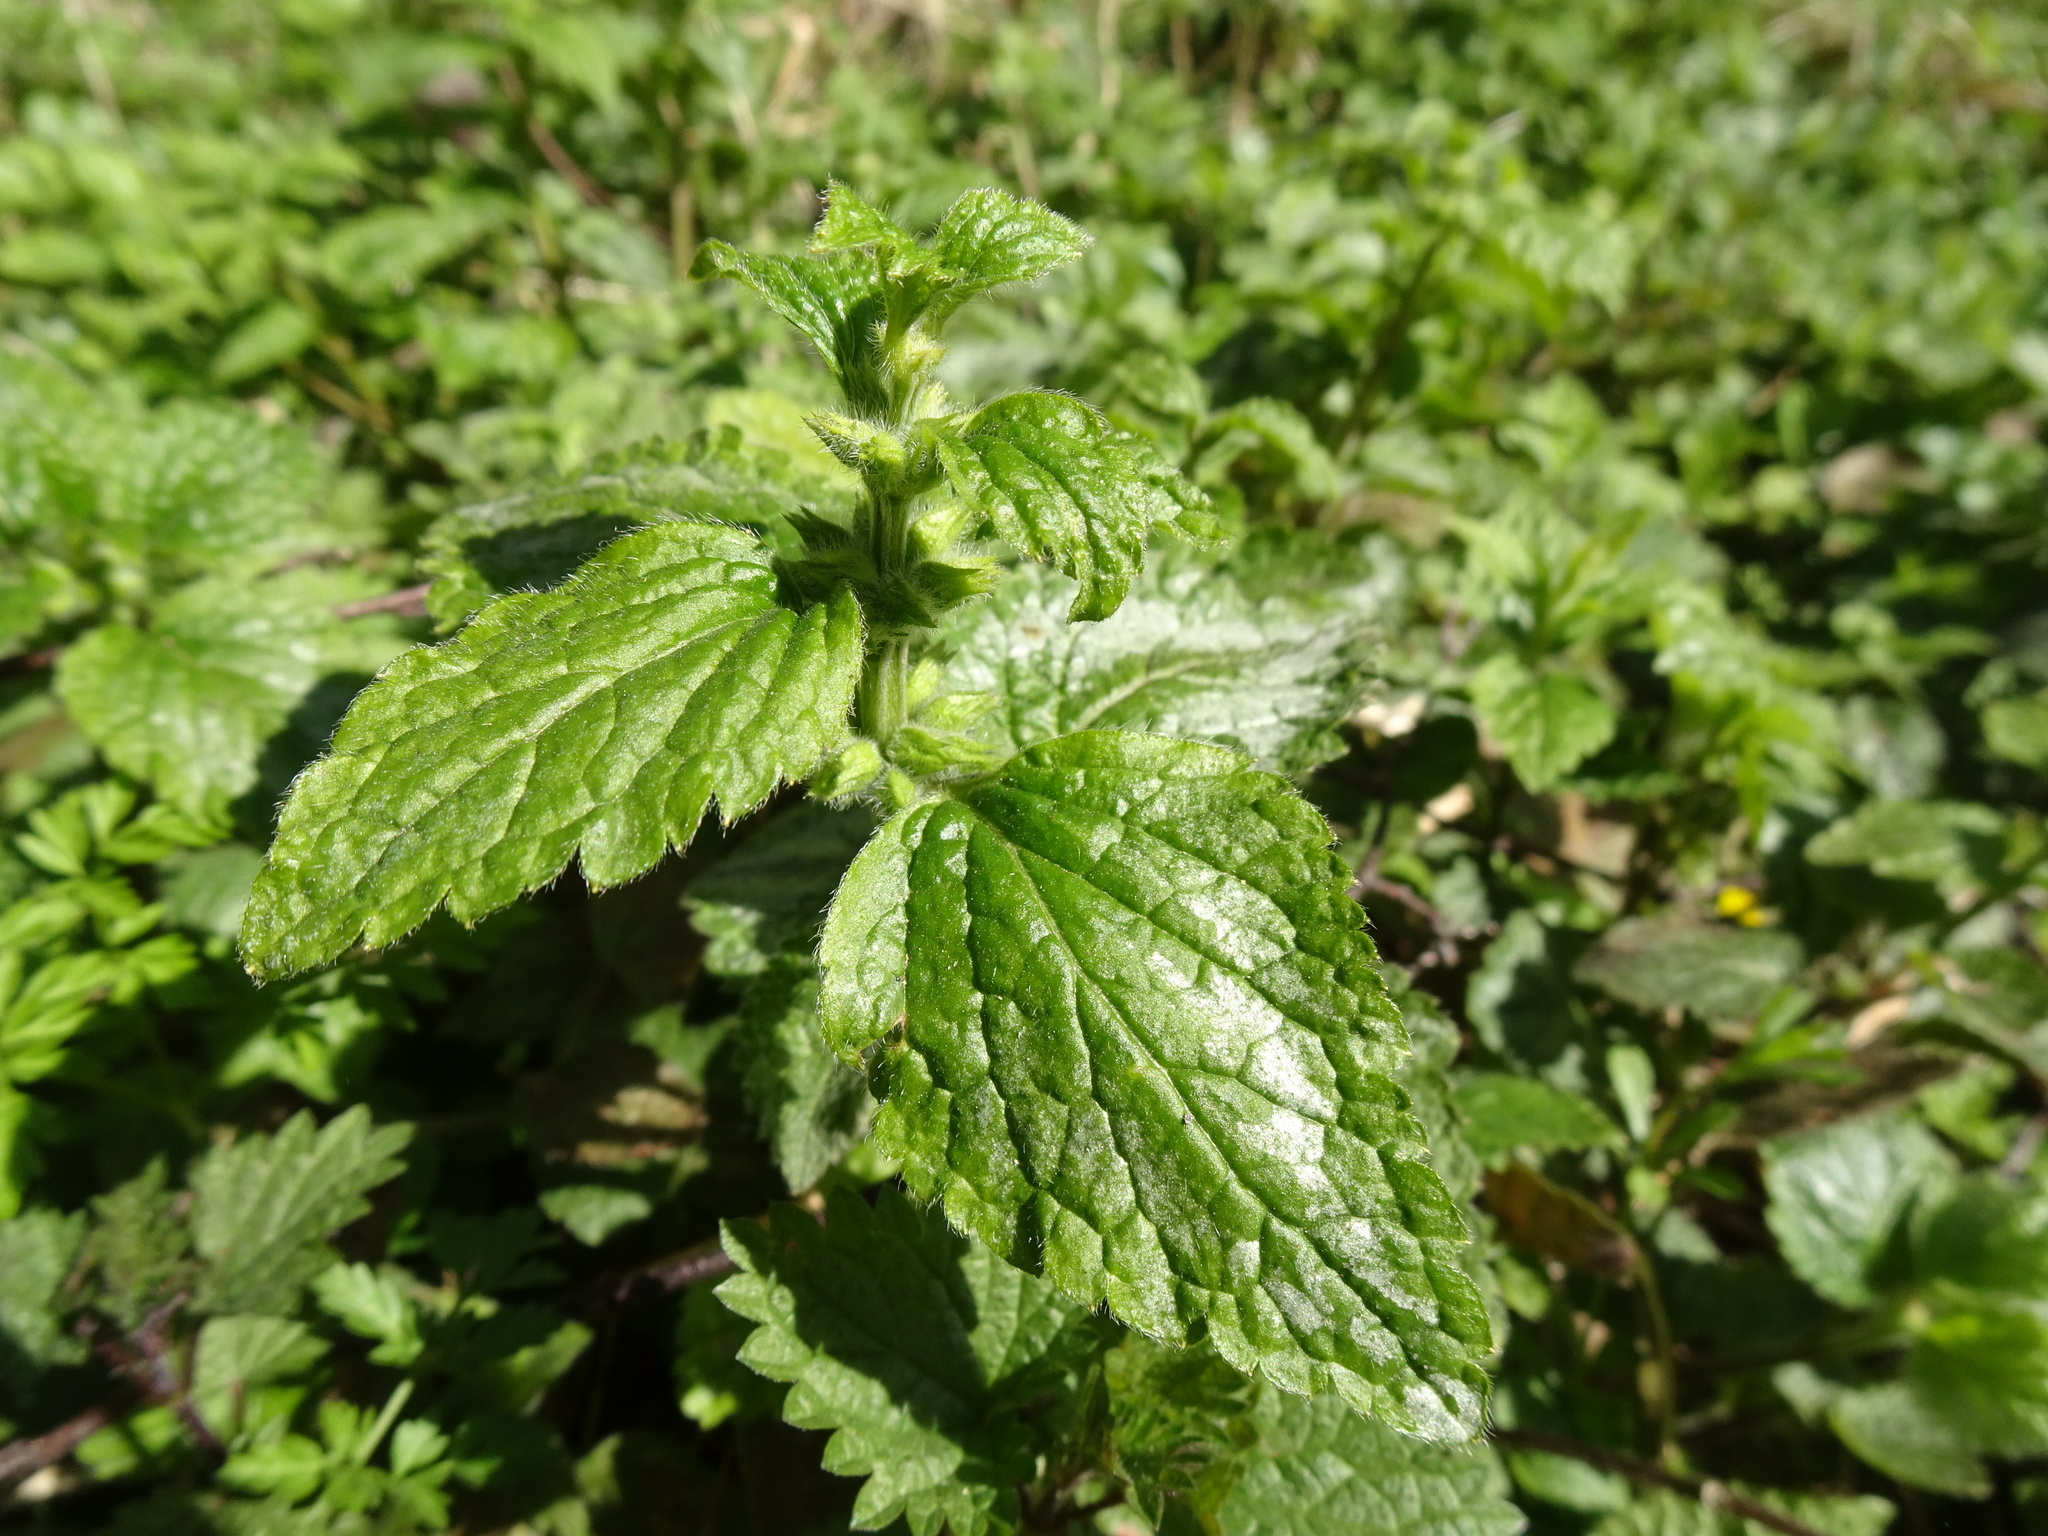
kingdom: Plantae
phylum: Tracheophyta
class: Magnoliopsida
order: Lamiales
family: Lamiaceae
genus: Lamium
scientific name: Lamium galeobdolon
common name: Yellow archangel
